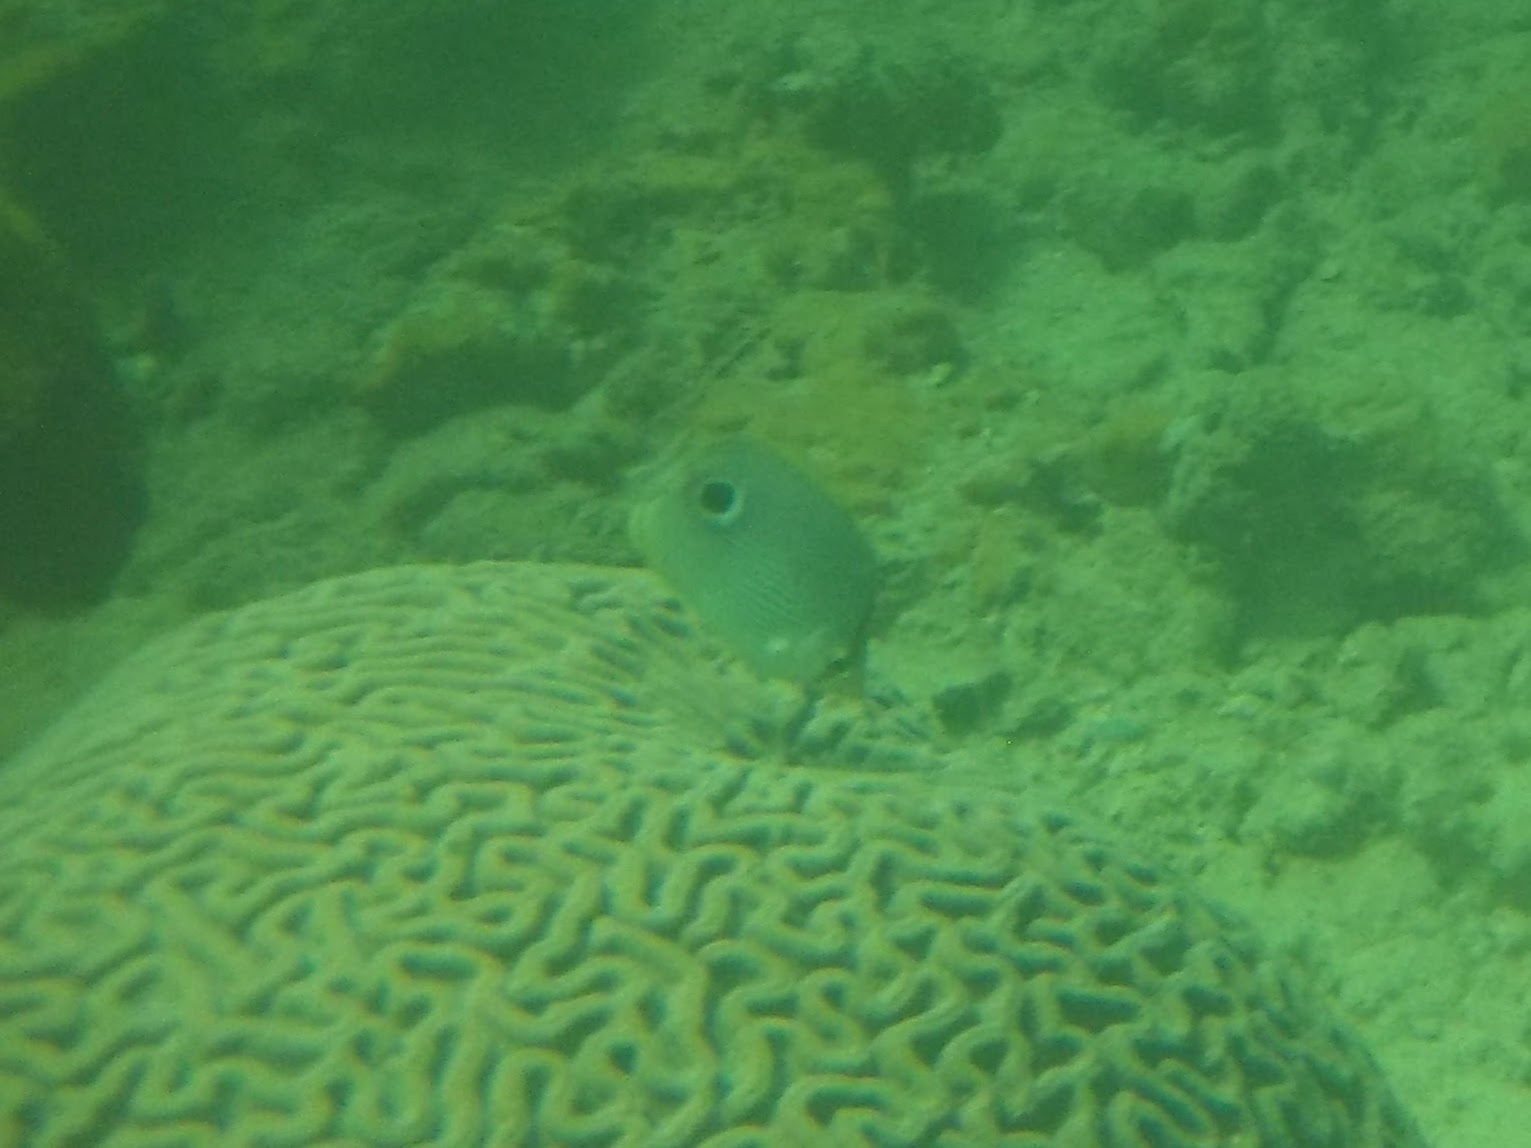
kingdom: Animalia
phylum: Chordata
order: Perciformes
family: Chaetodontidae
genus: Chaetodon
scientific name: Chaetodon capistratus
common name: Kete
